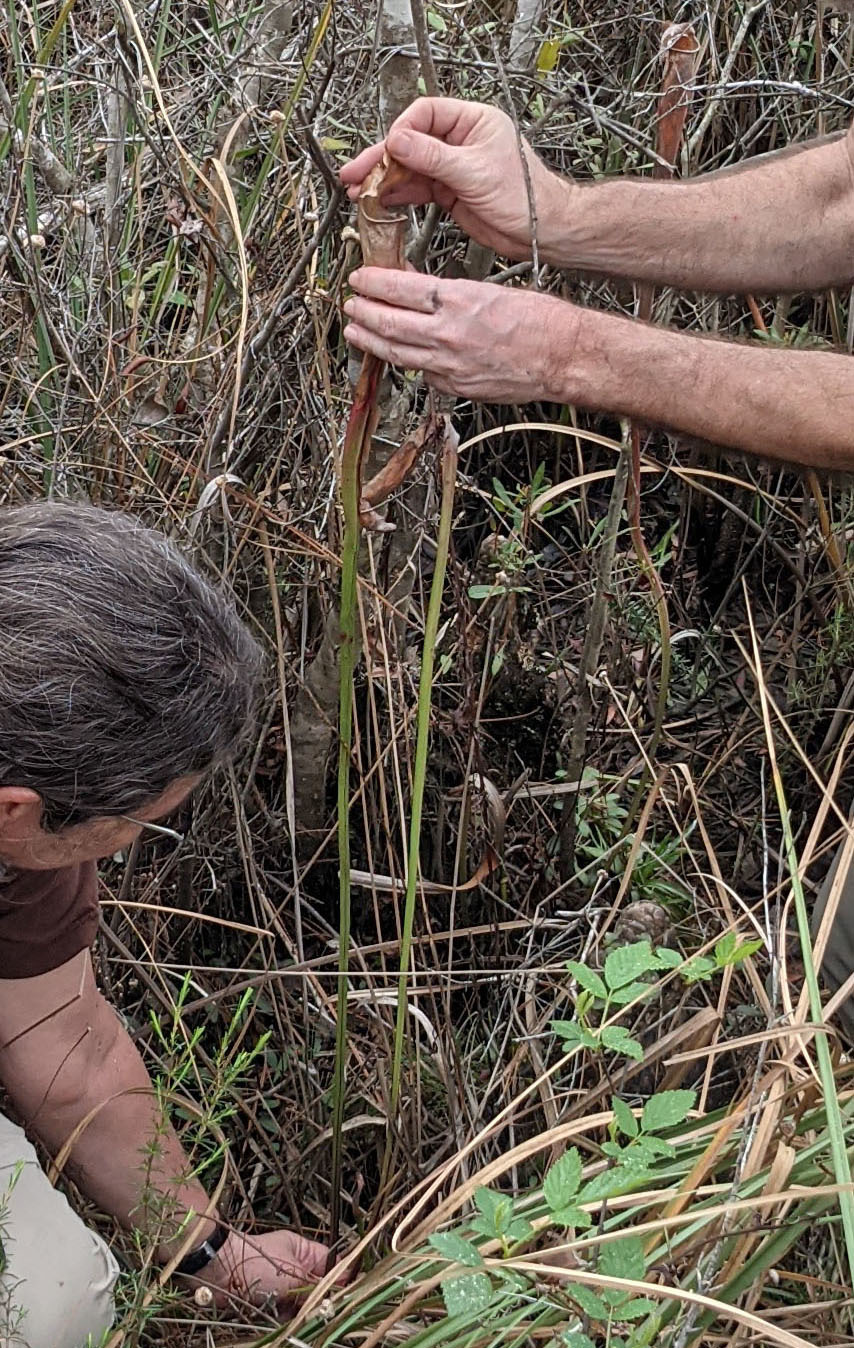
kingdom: Plantae
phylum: Tracheophyta
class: Magnoliopsida
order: Ericales
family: Sarraceniaceae
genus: Sarracenia
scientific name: Sarracenia alata
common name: Yellow trumpets
